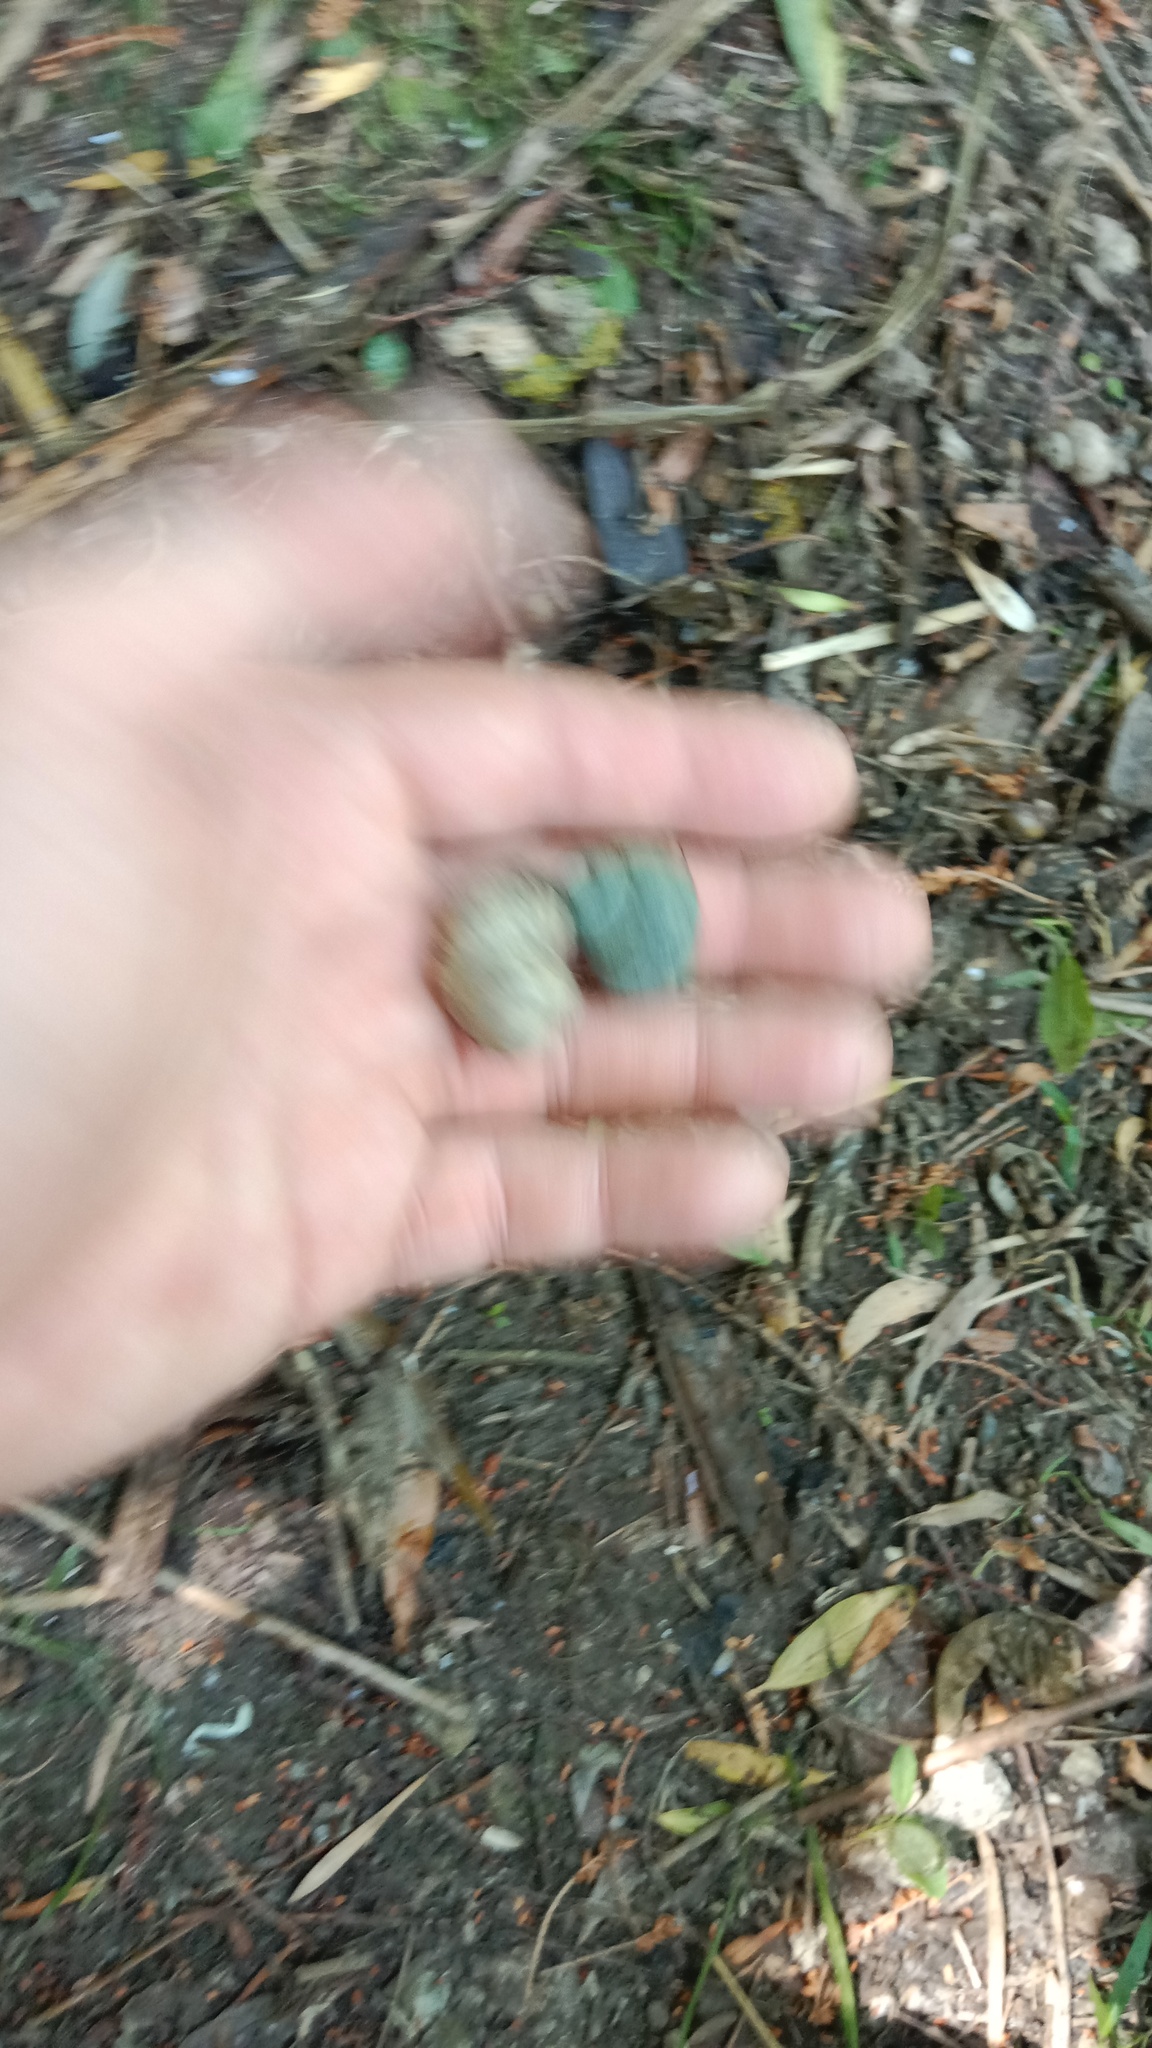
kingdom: Animalia
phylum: Mollusca
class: Gastropoda
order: Architaenioglossa
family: Viviparidae
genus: Viviparus
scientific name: Viviparus viviparus
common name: River snail
